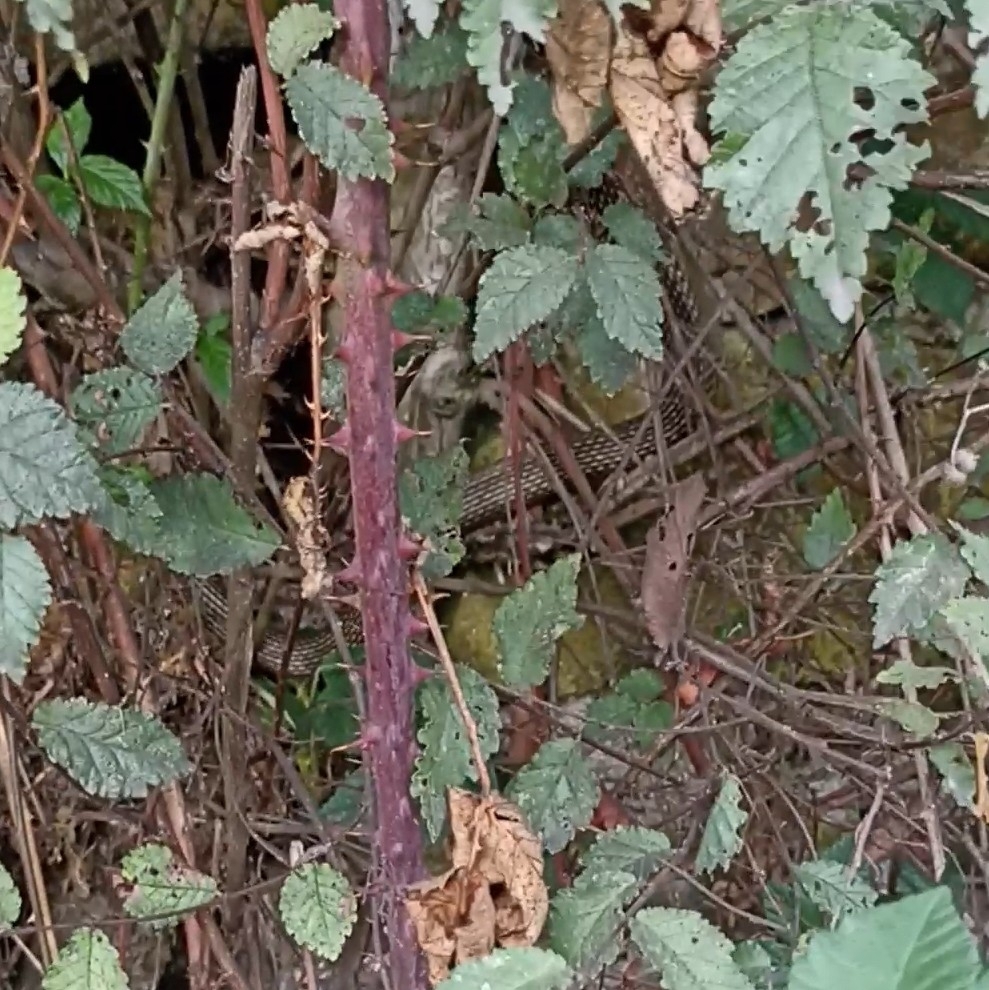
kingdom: Animalia
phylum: Chordata
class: Squamata
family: Colubridae
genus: Hierophis
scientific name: Hierophis viridiflavus
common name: Green whip snake
